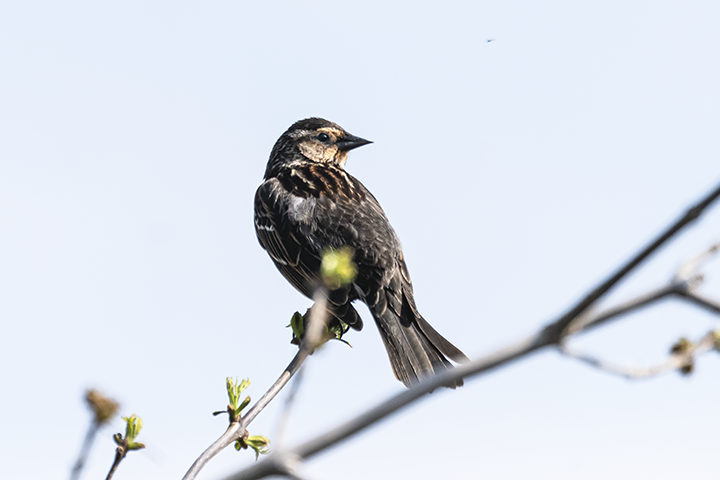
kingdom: Animalia
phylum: Chordata
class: Aves
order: Passeriformes
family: Icteridae
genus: Agelaius
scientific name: Agelaius phoeniceus
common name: Red-winged blackbird
